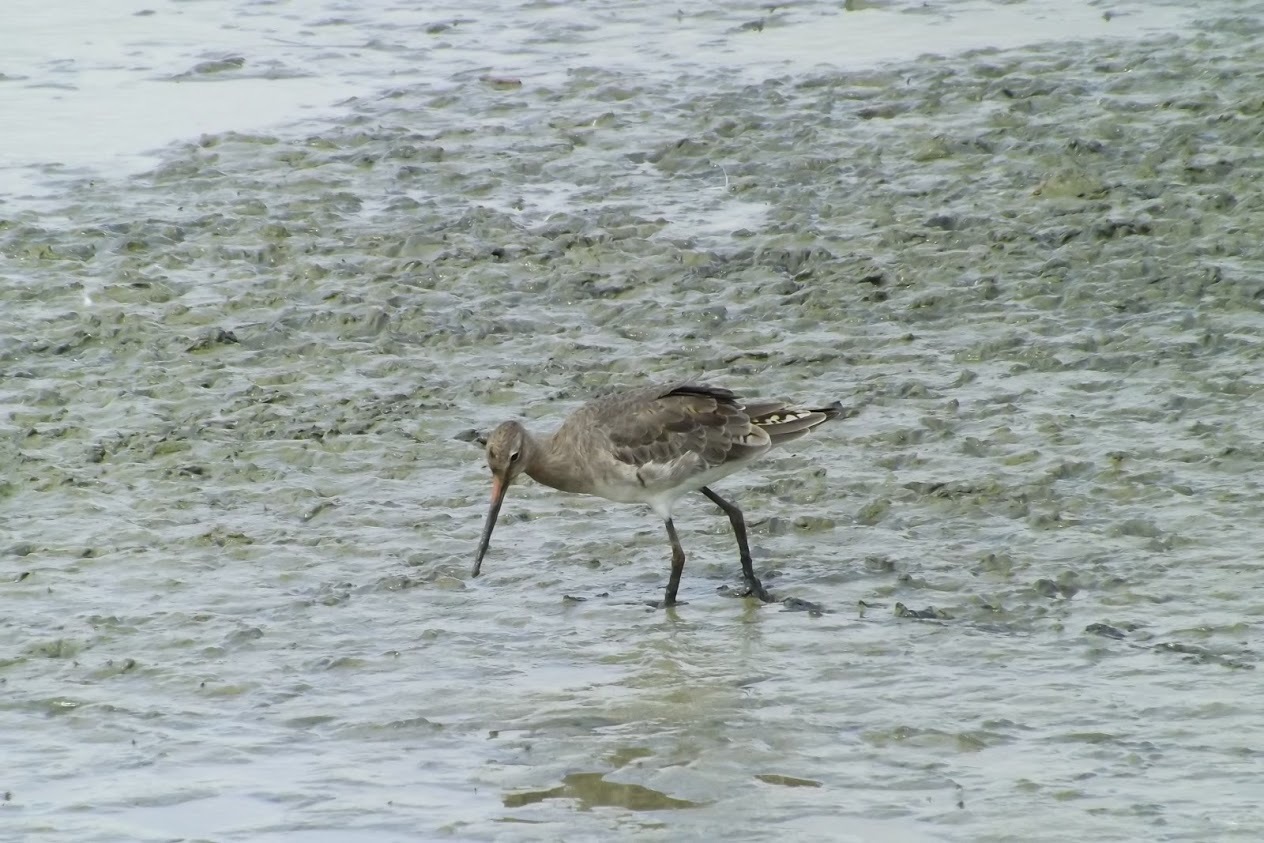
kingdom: Animalia
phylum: Chordata
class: Aves
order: Charadriiformes
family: Scolopacidae
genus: Limosa
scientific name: Limosa limosa
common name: Black-tailed godwit
